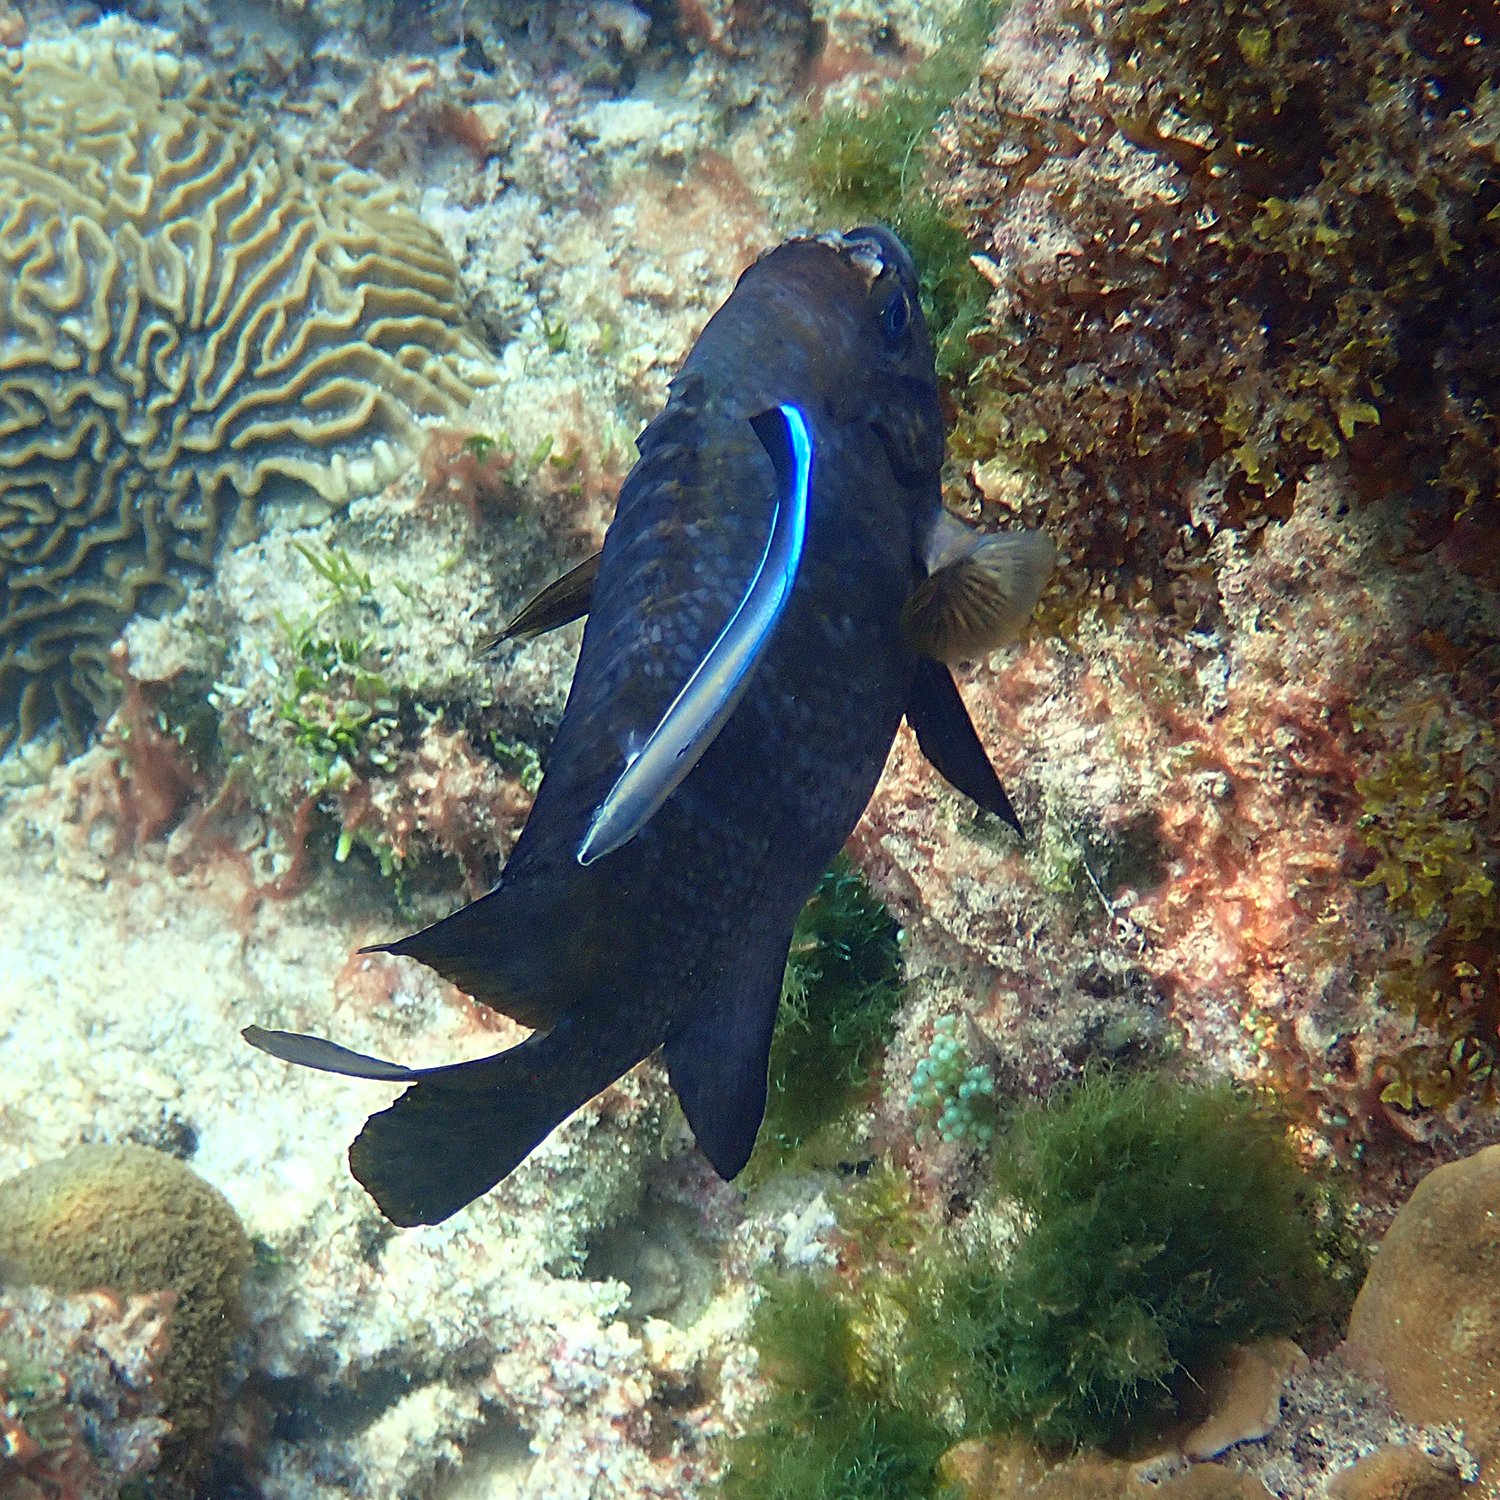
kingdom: Animalia
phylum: Chordata
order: Perciformes
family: Labridae
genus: Labroides
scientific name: Labroides dimidiatus
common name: Blue diesel wrasse
